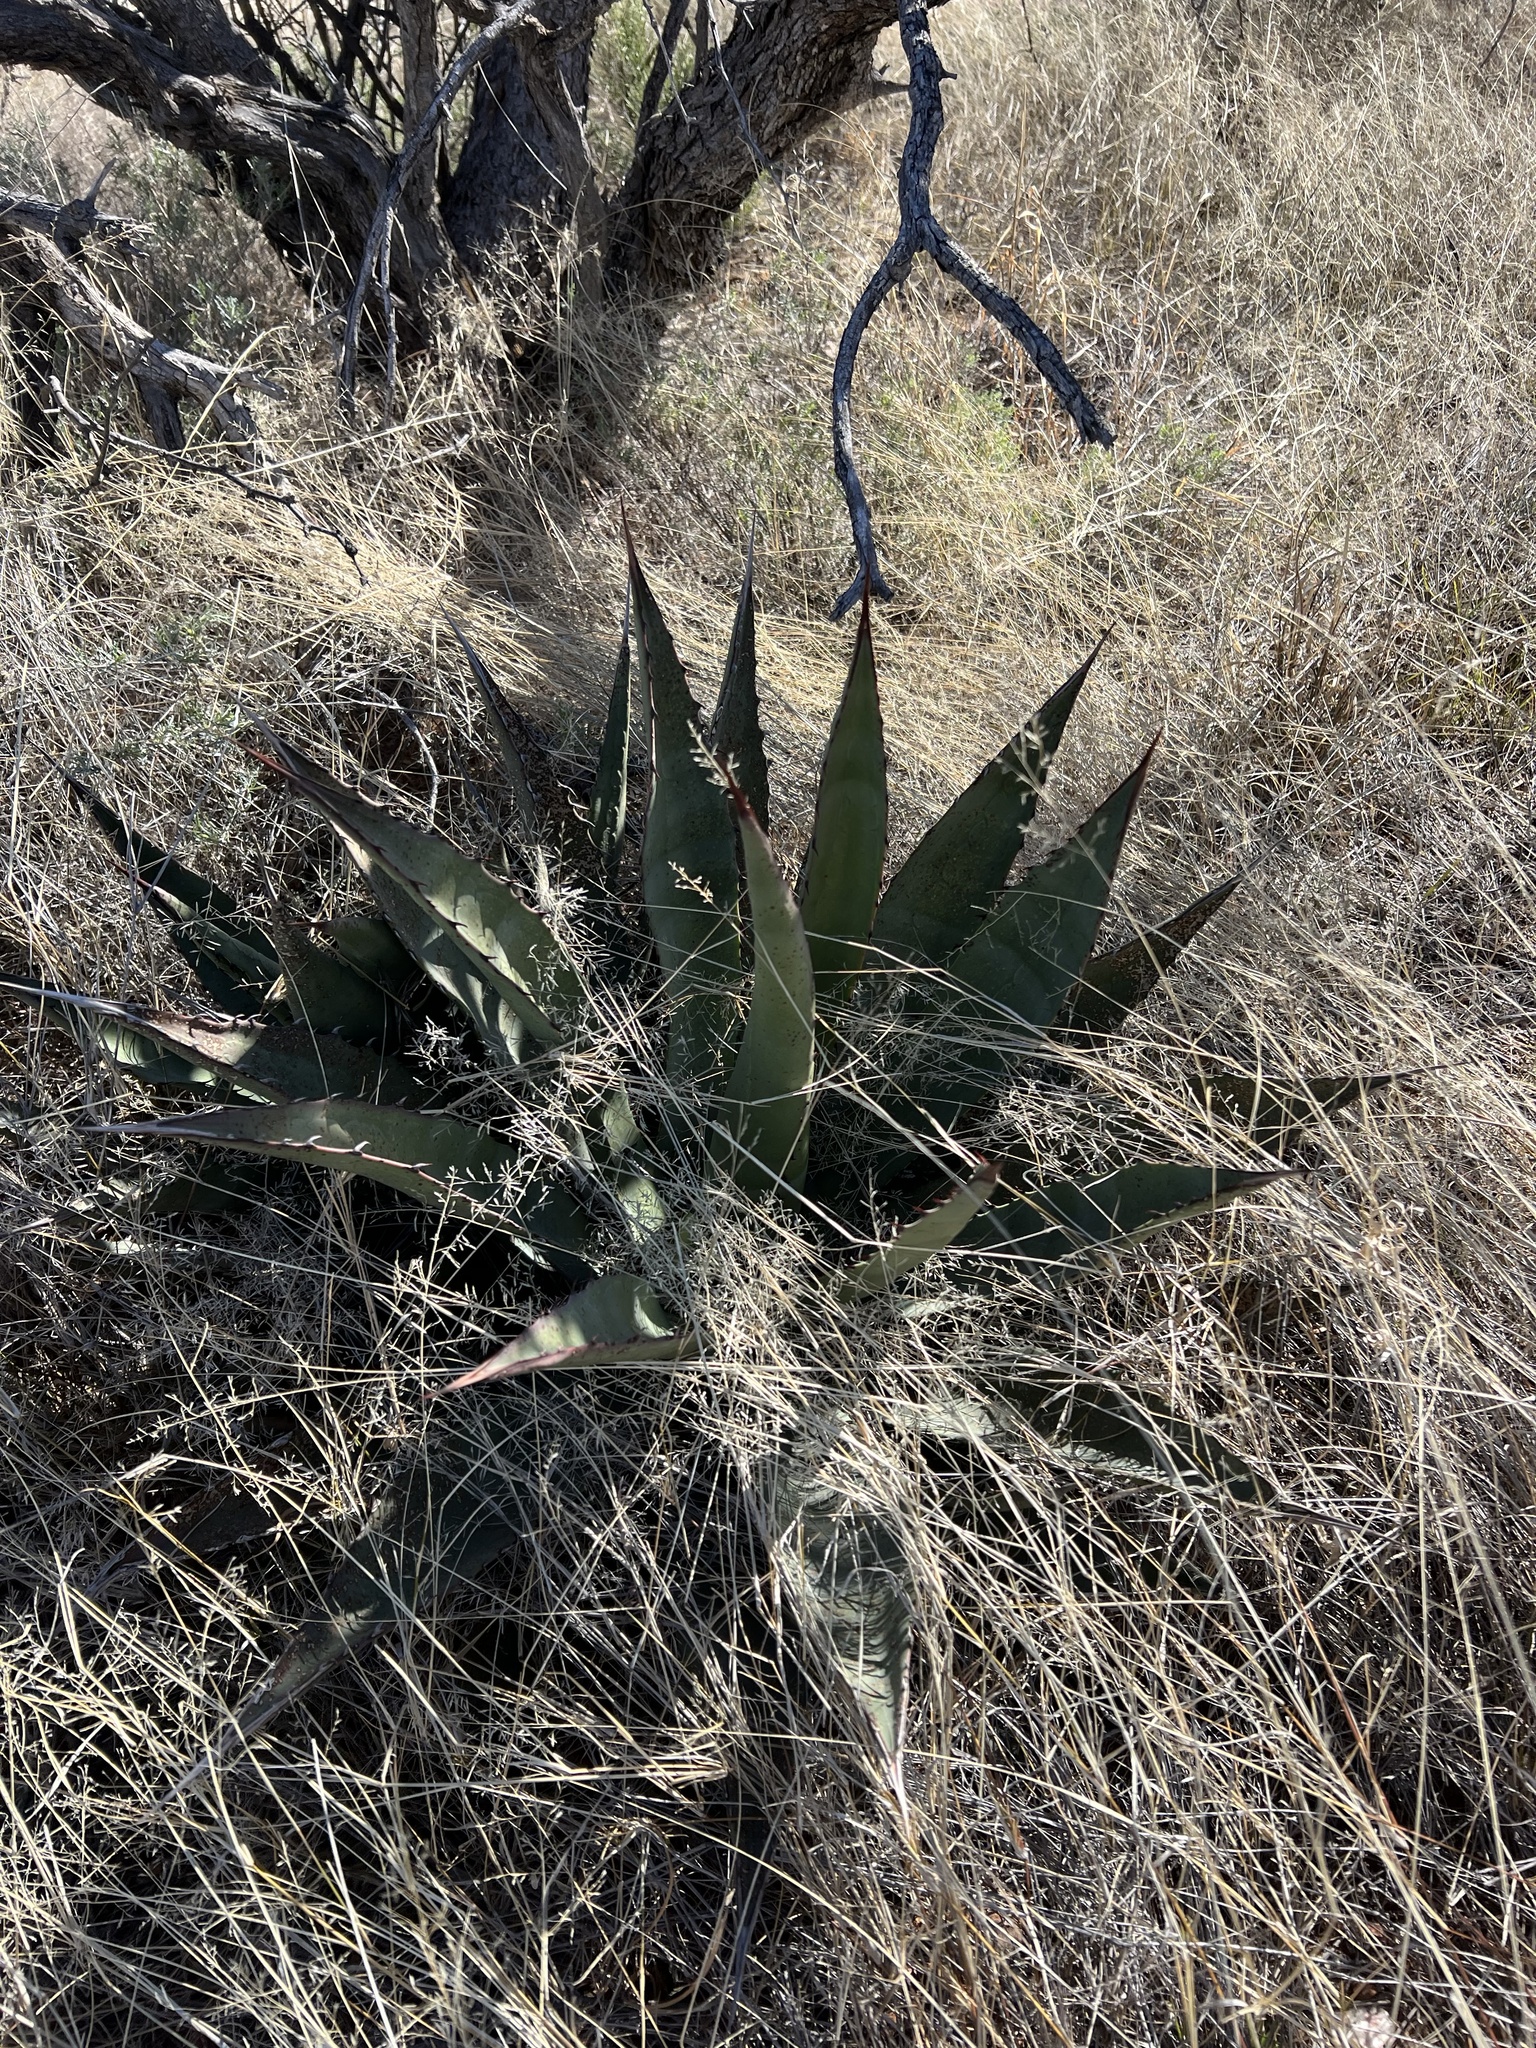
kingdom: Plantae
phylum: Tracheophyta
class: Liliopsida
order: Asparagales
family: Asparagaceae
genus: Agave
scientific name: Agave palmeri
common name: Palmer agave
